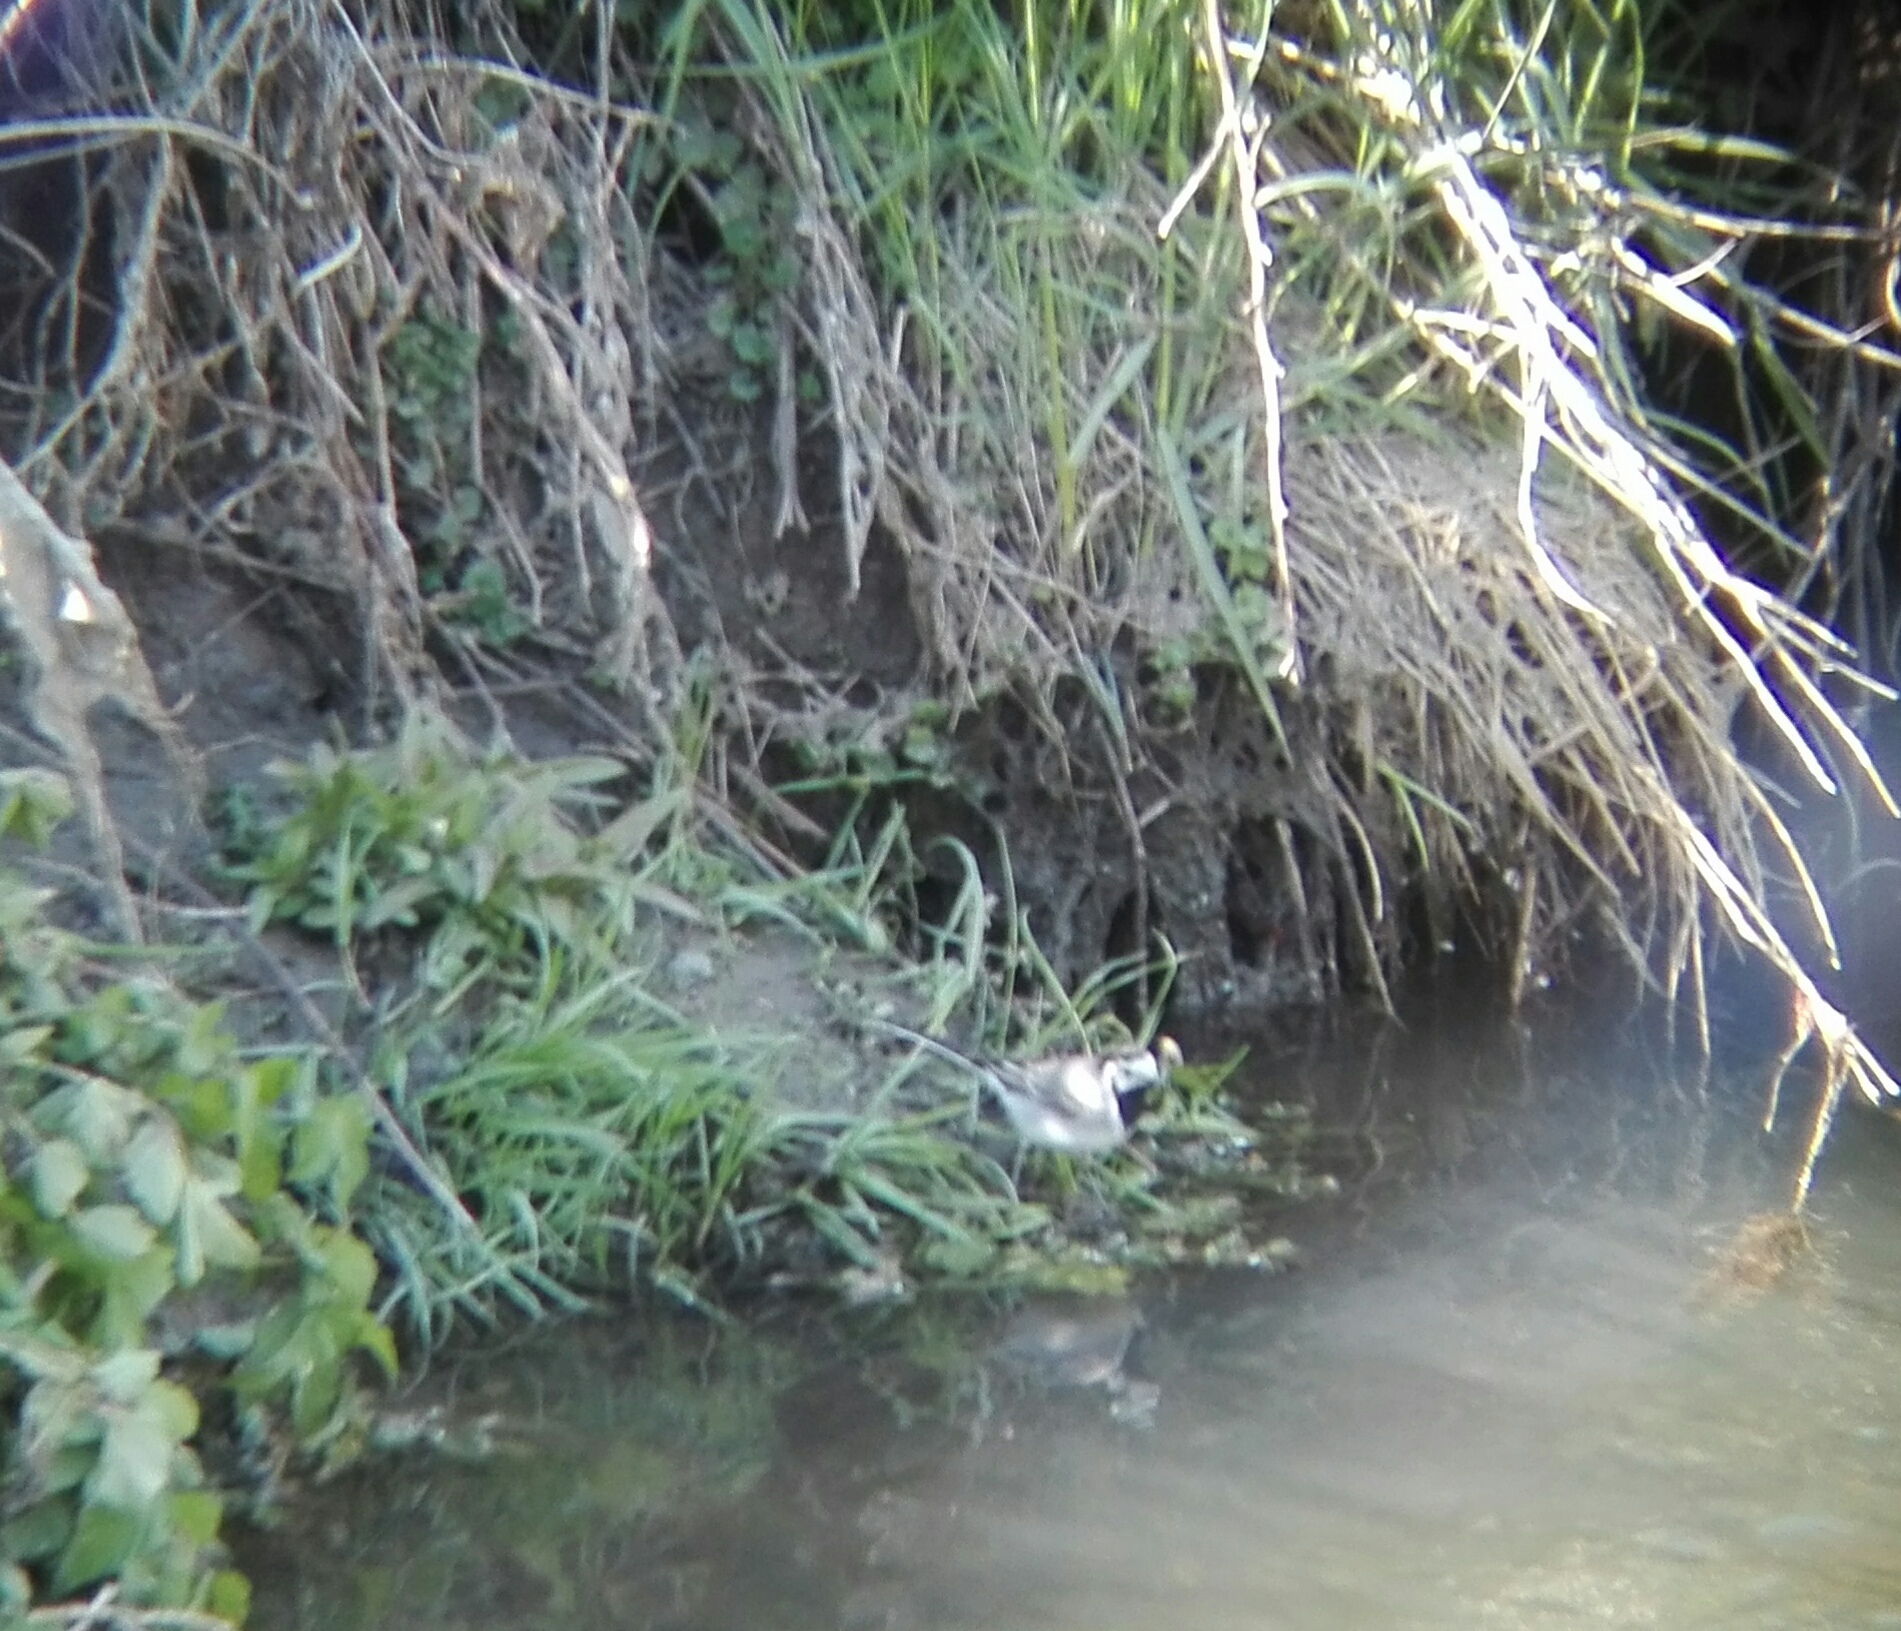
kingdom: Animalia
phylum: Chordata
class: Aves
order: Passeriformes
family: Motacillidae
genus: Motacilla
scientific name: Motacilla alba
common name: White wagtail
